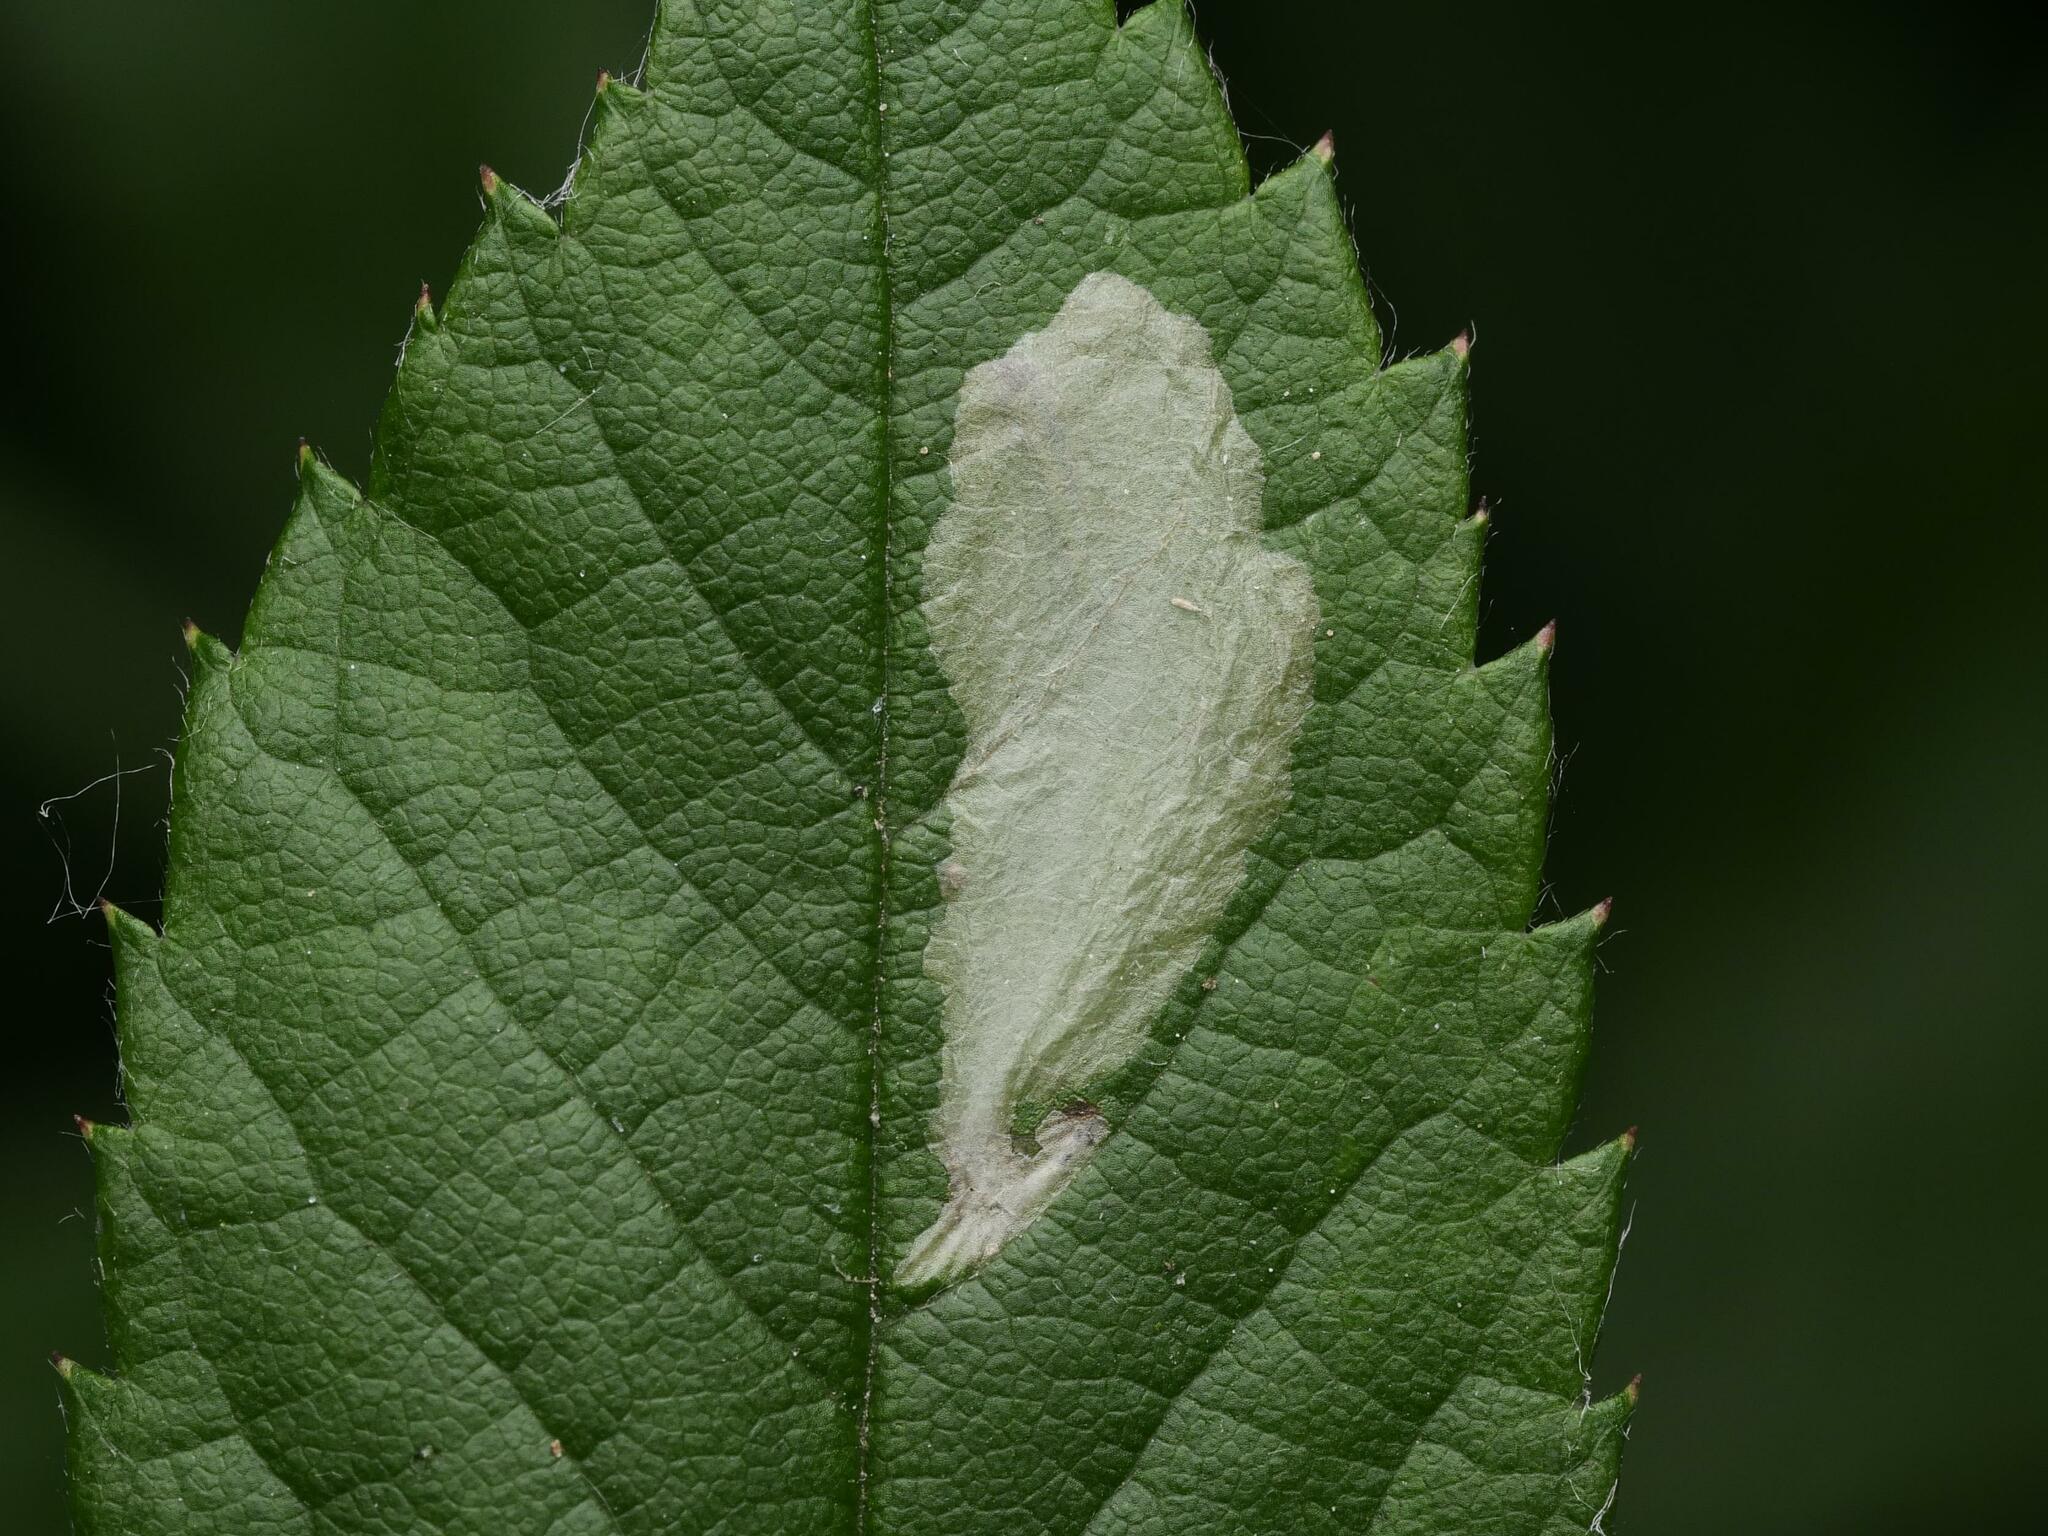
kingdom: Animalia
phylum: Arthropoda
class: Insecta
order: Lepidoptera
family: Tischeriidae
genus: Coptotriche
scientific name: Coptotriche angusticolella
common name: Rose carl
